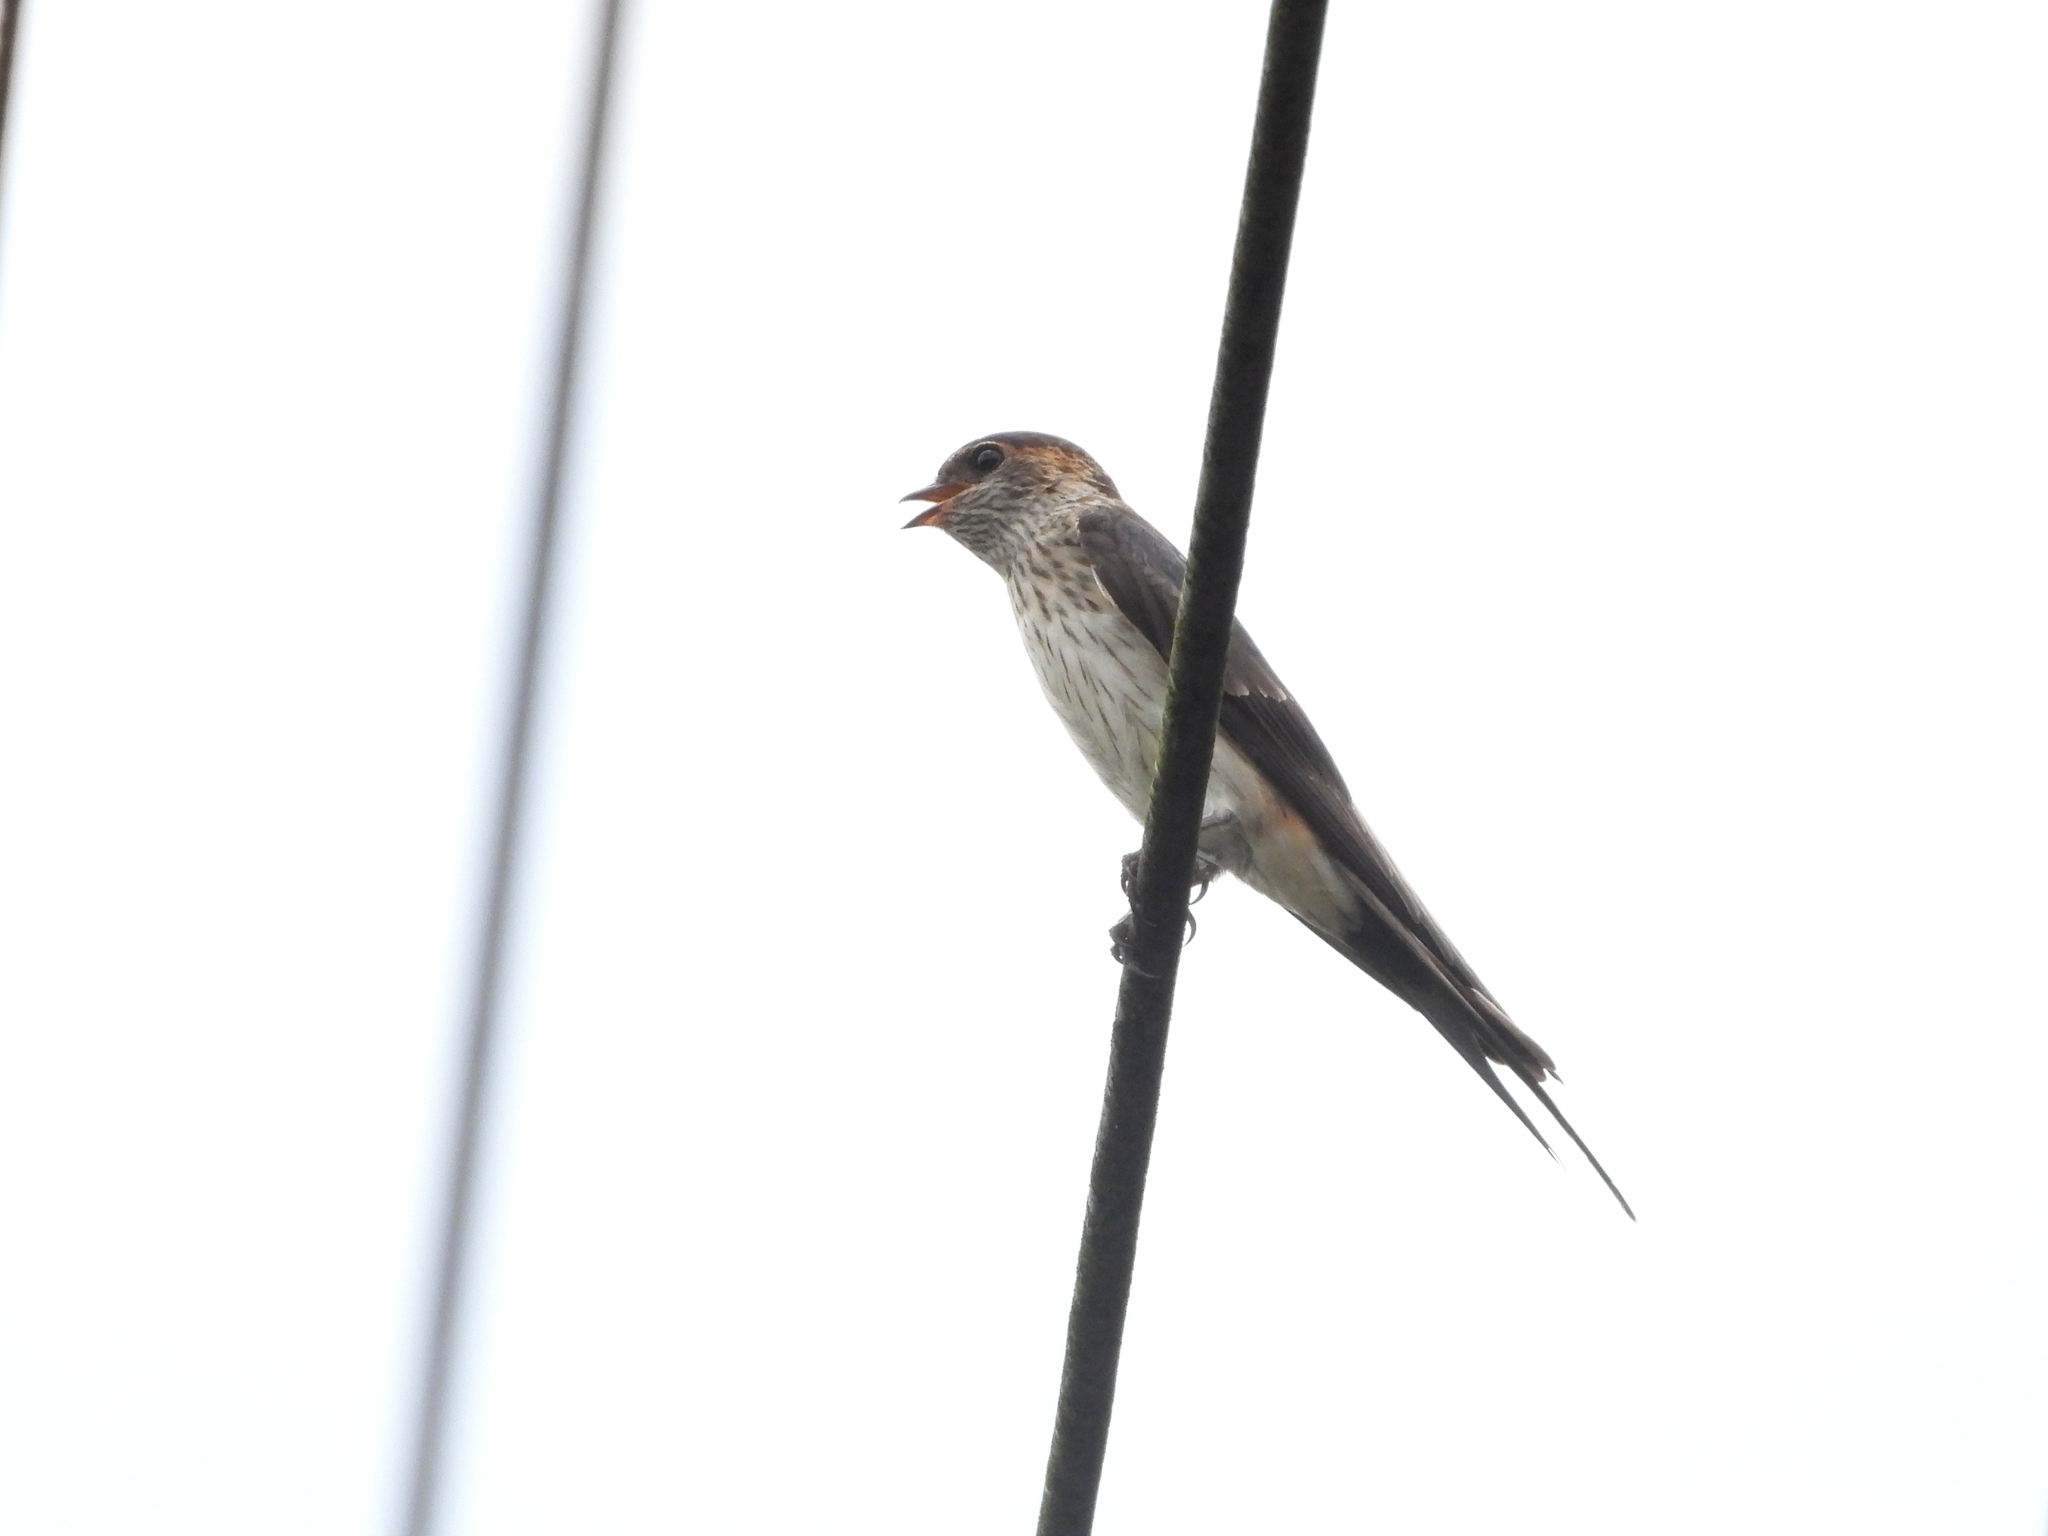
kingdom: Animalia
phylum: Chordata
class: Aves
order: Passeriformes
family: Hirundinidae
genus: Cecropis
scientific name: Cecropis striolata
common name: Striated swallow
